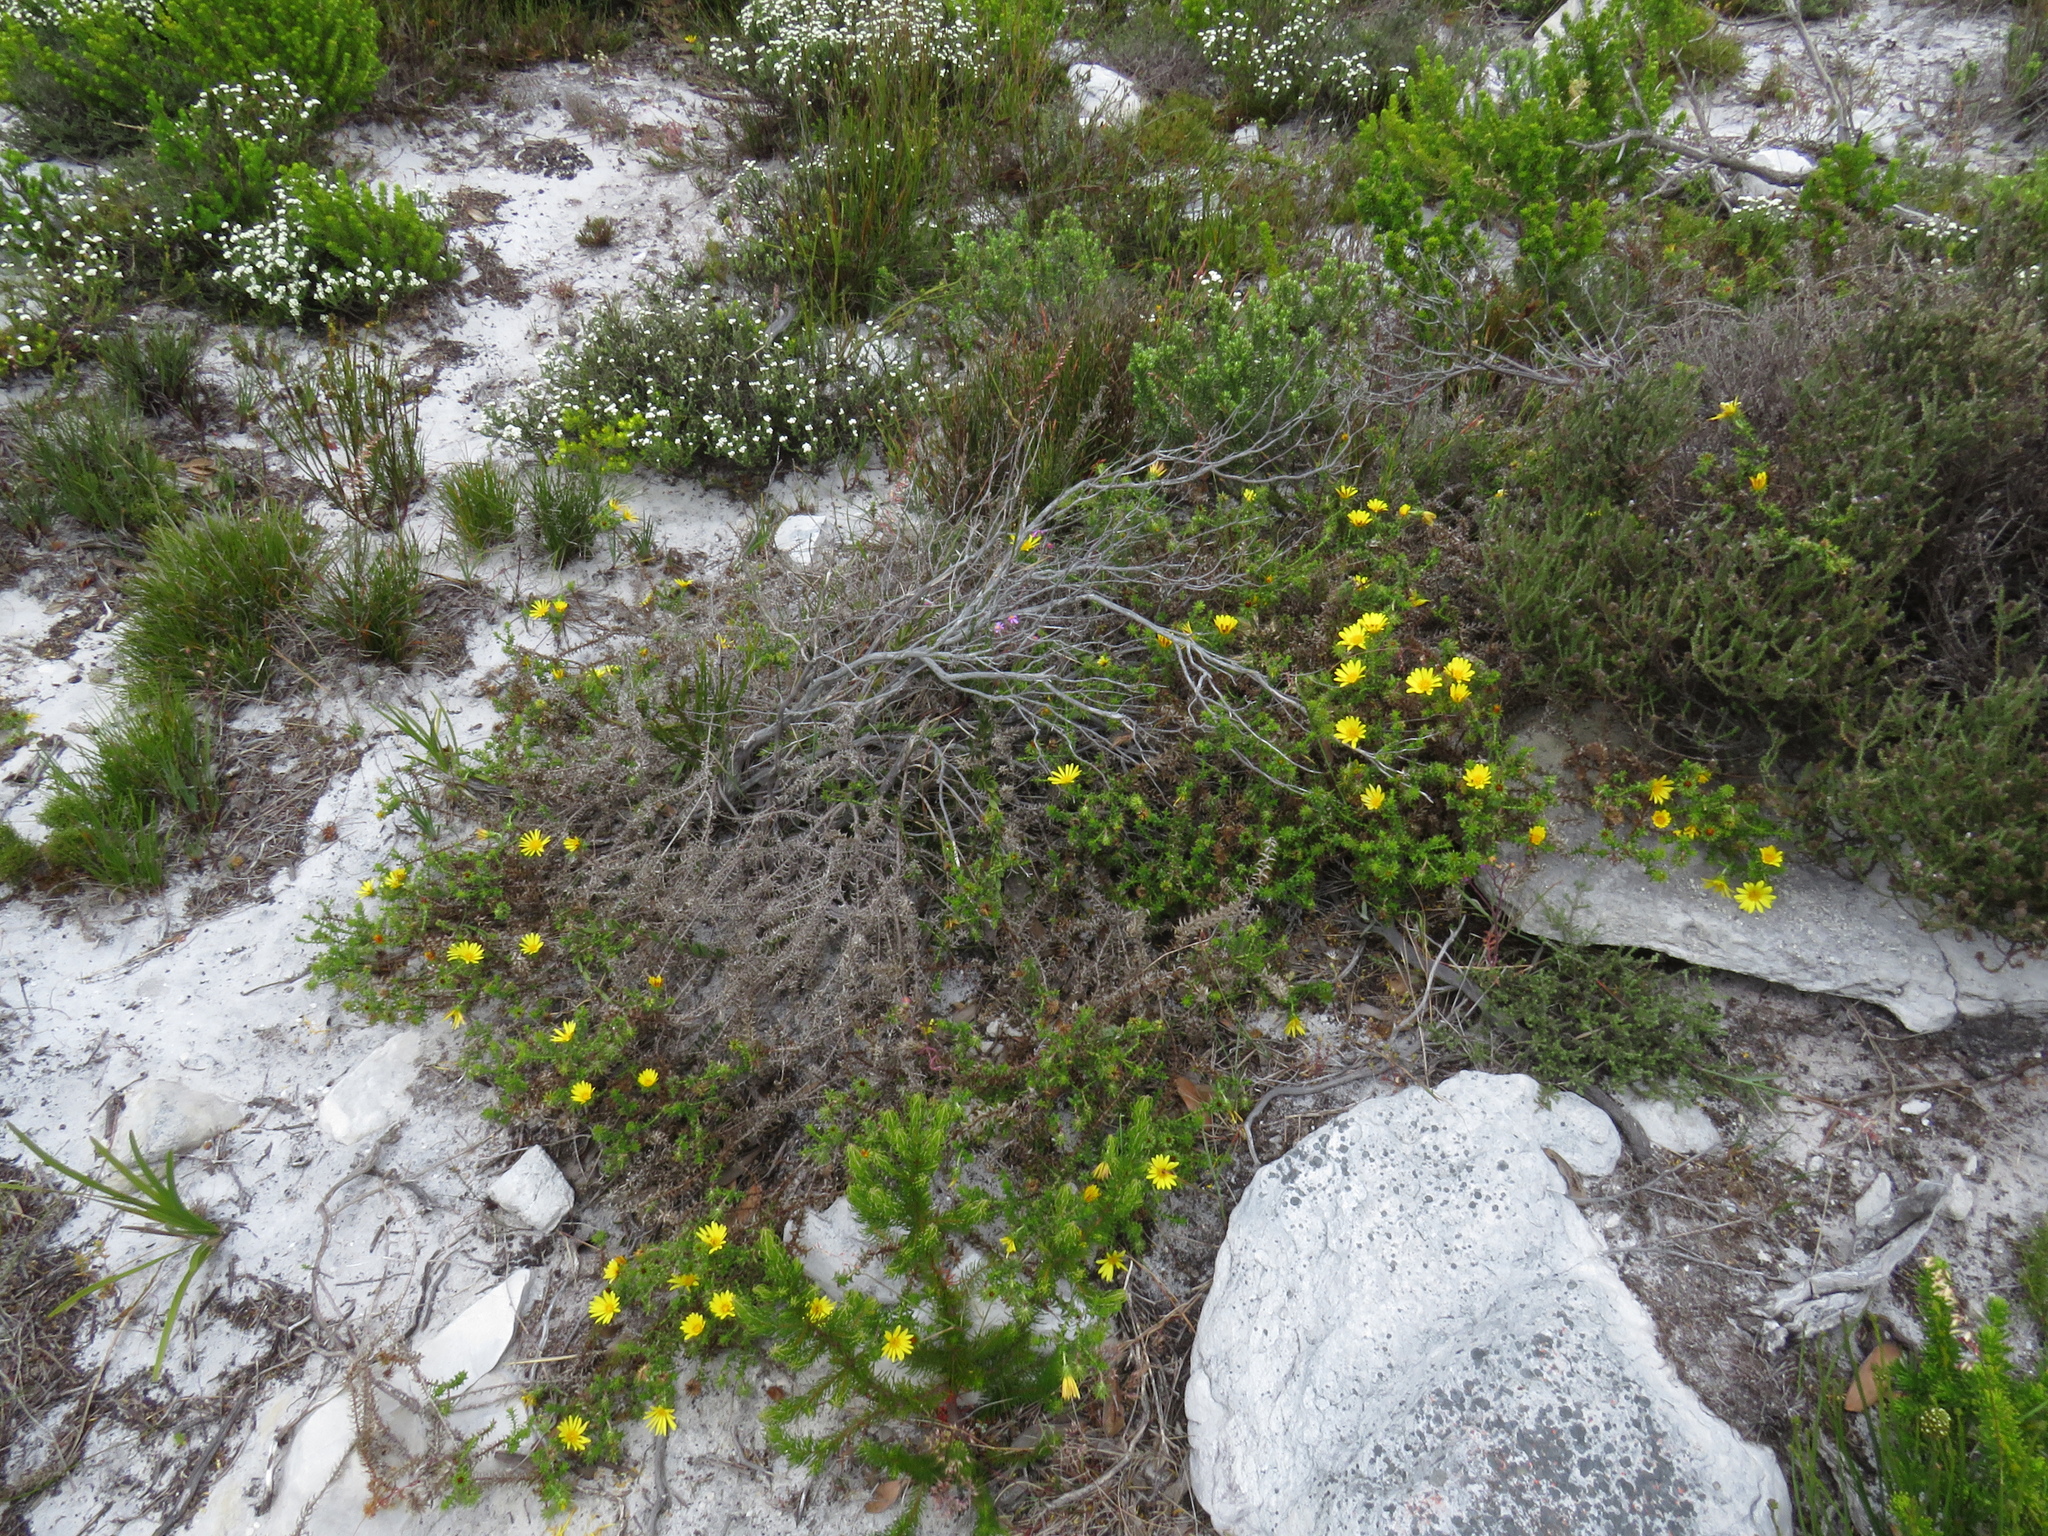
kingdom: Plantae
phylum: Tracheophyta
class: Magnoliopsida
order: Asterales
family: Asteraceae
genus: Cullumia
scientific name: Cullumia setosa
